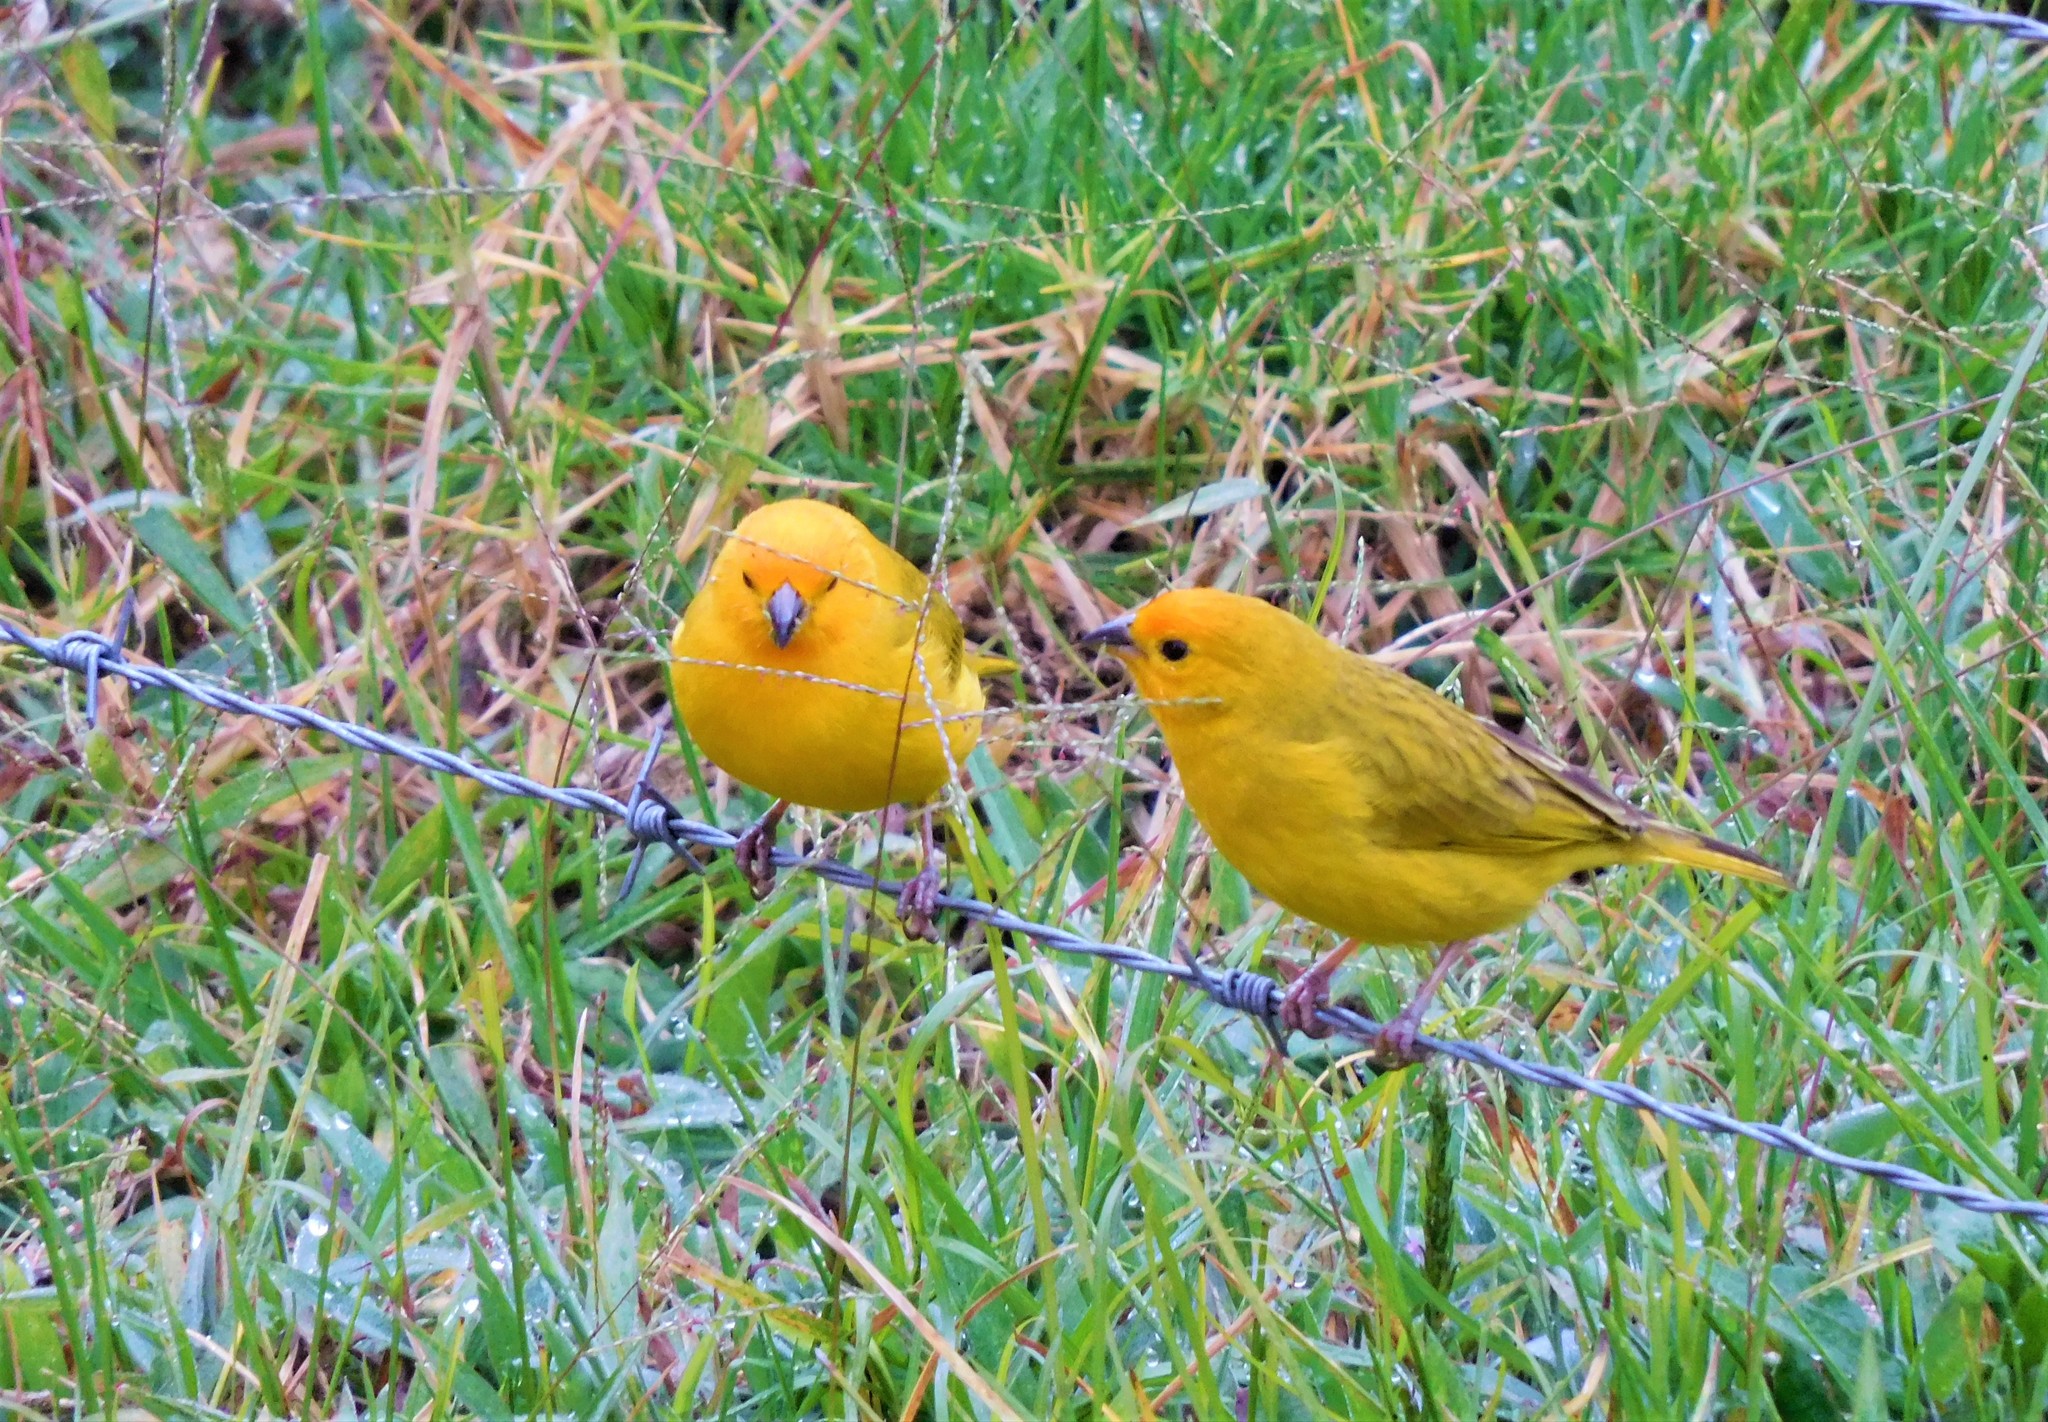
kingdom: Animalia
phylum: Chordata
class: Aves
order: Passeriformes
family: Thraupidae
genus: Sicalis
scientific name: Sicalis flaveola
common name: Saffron finch
